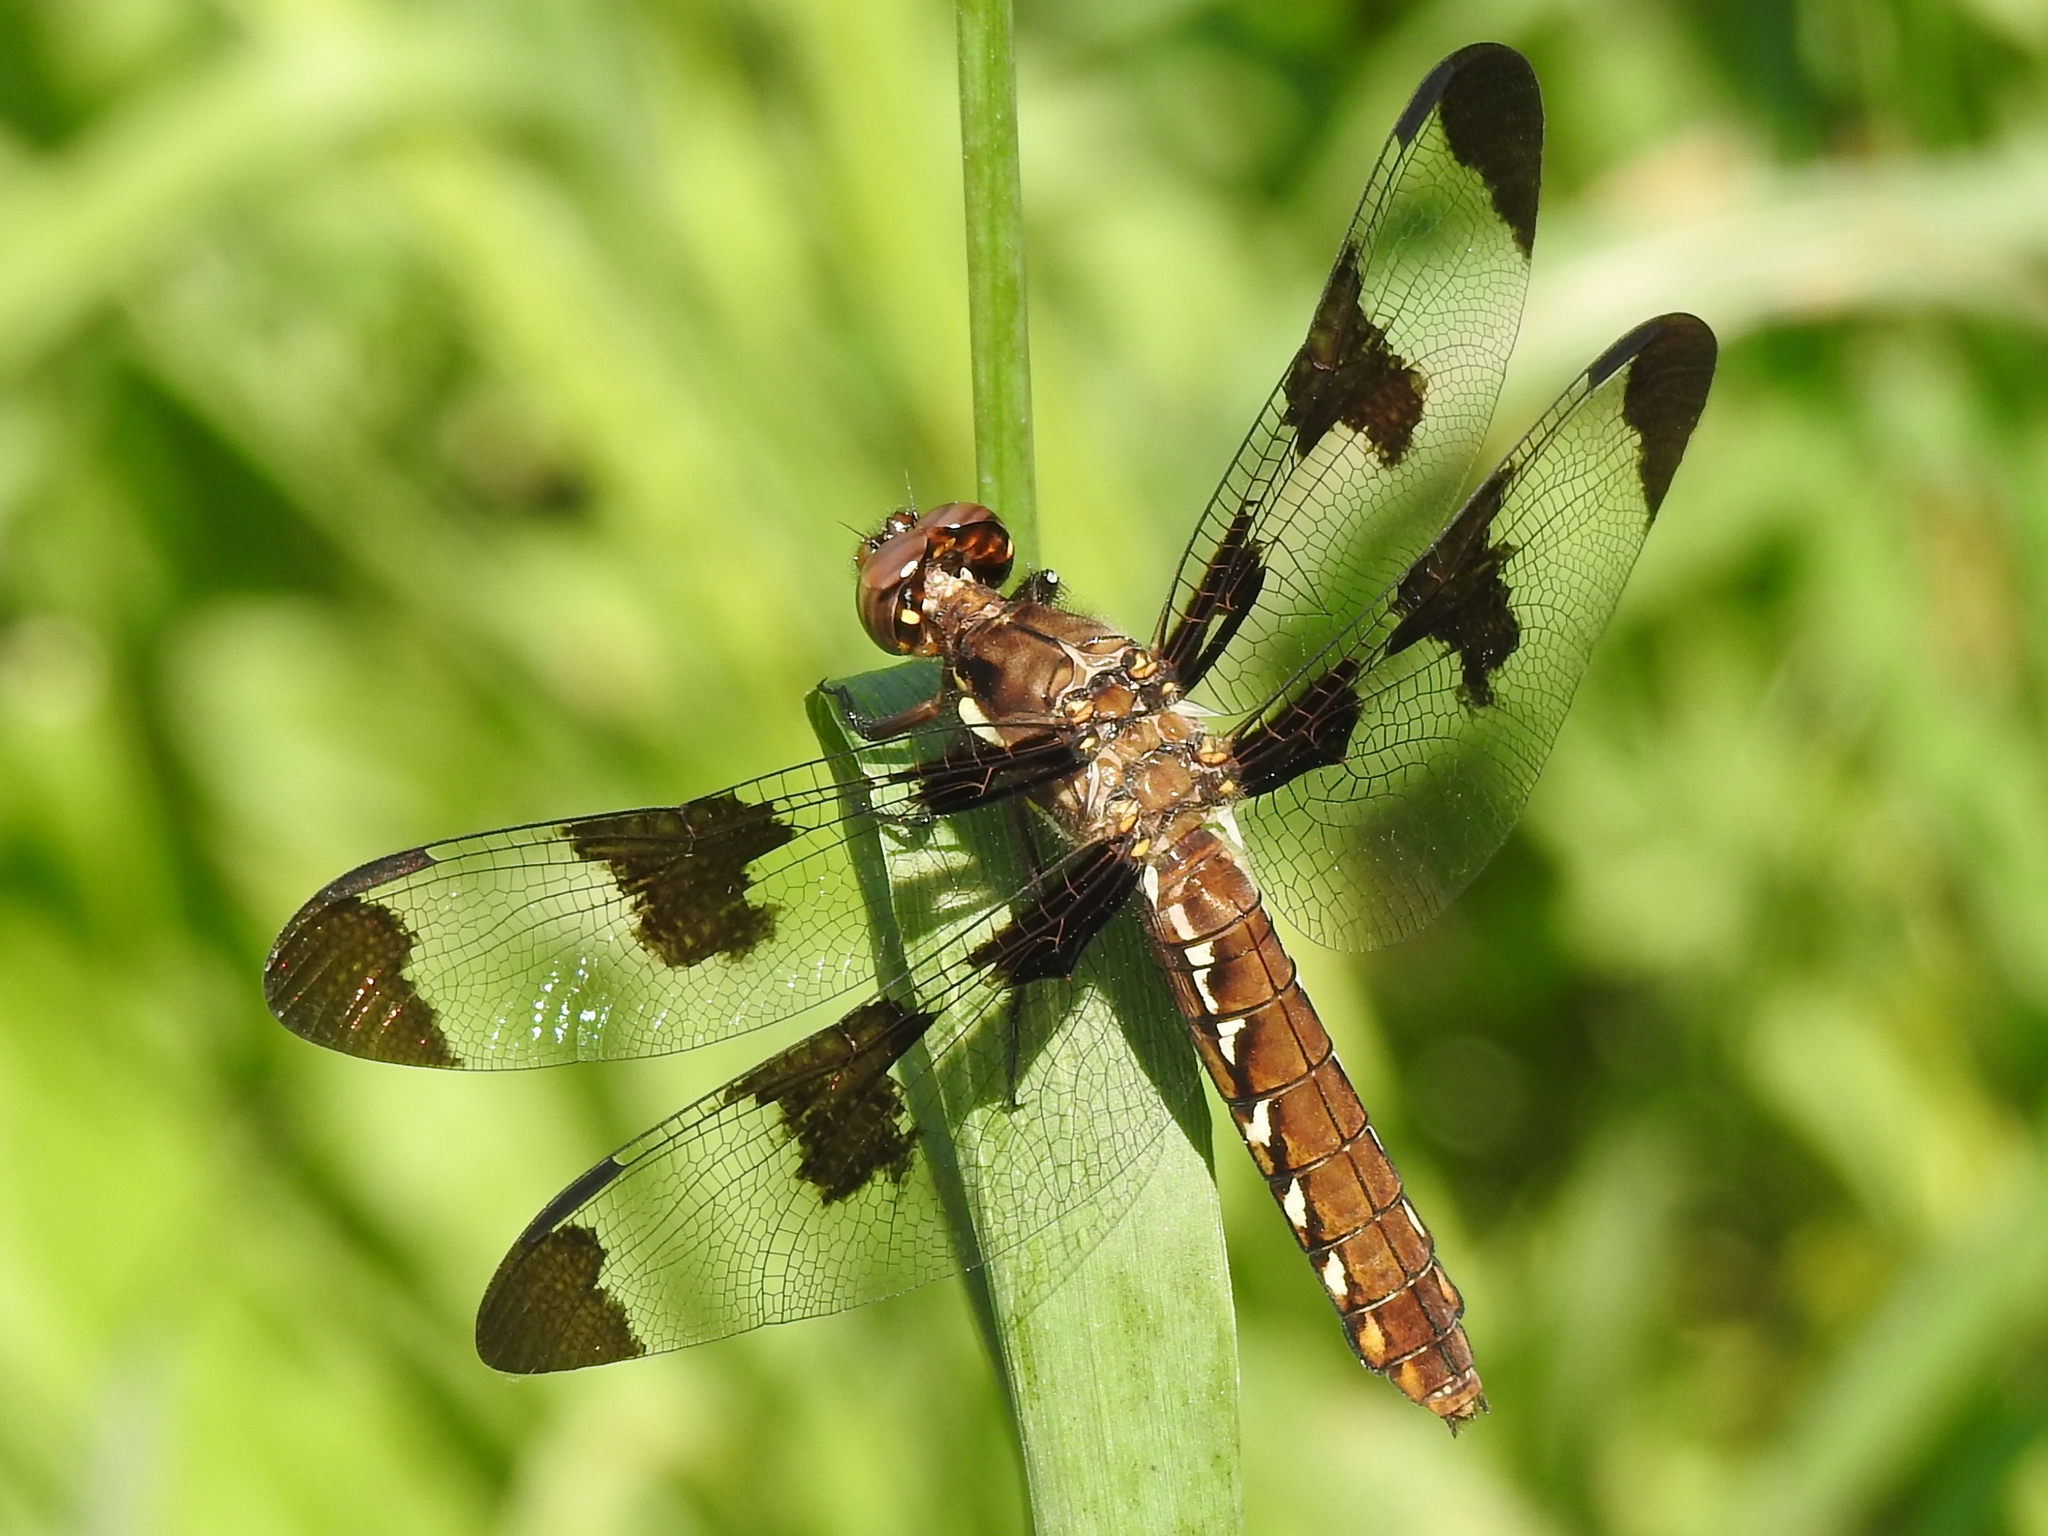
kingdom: Animalia
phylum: Arthropoda
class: Insecta
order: Odonata
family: Libellulidae
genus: Plathemis
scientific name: Plathemis lydia
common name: Common whitetail
